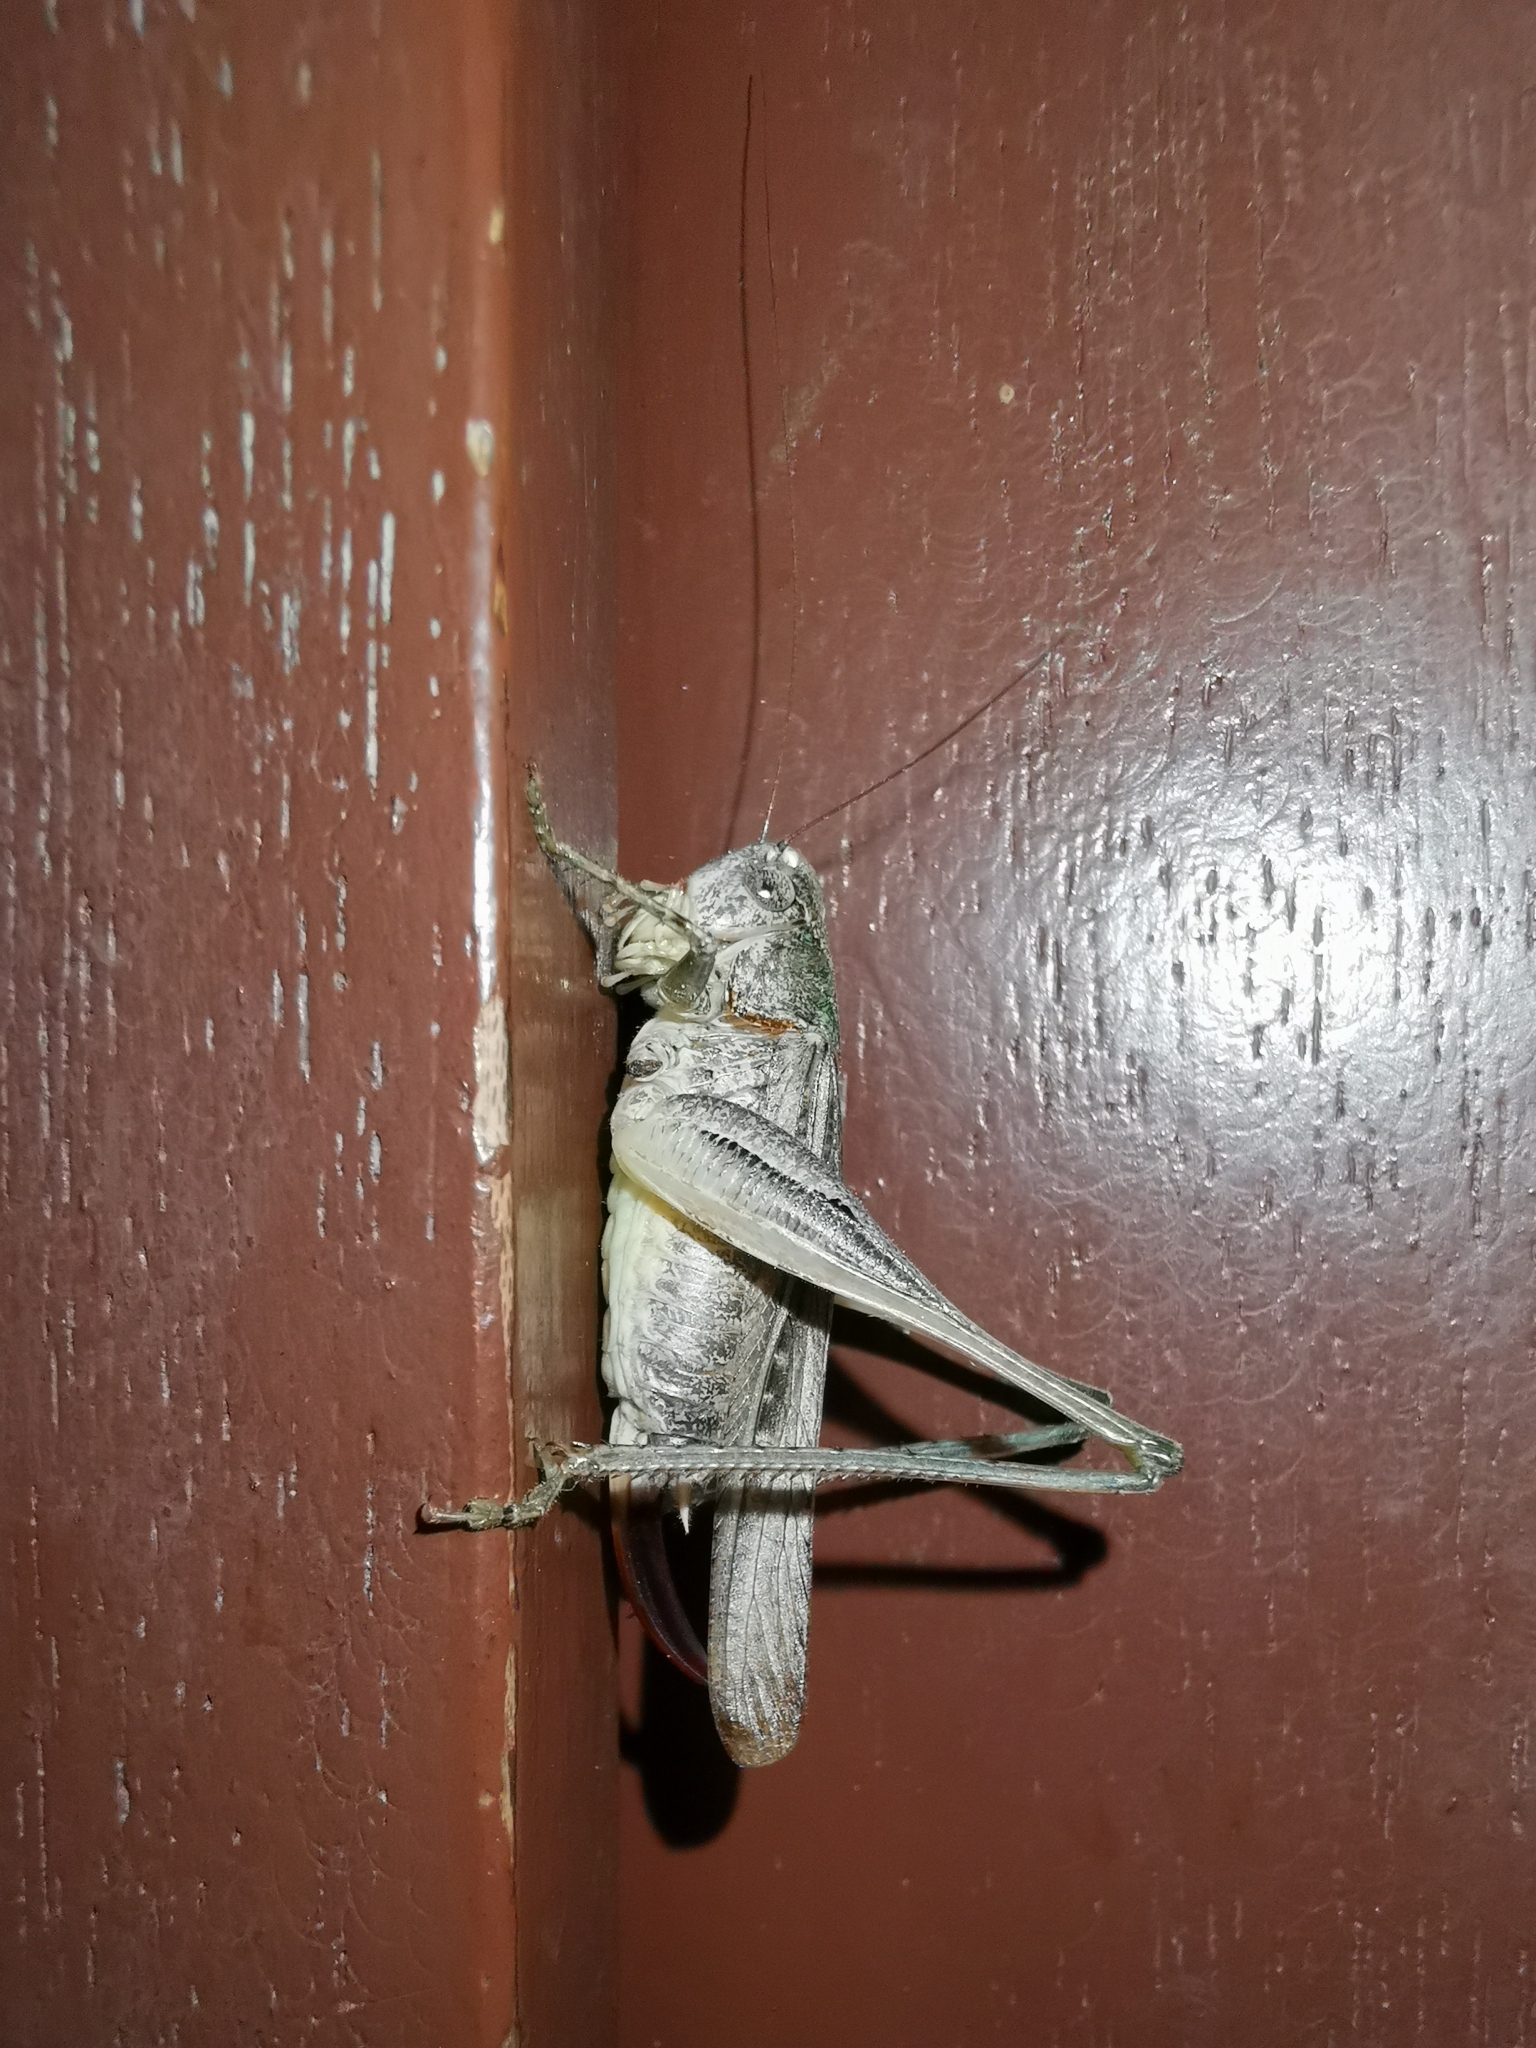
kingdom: Animalia
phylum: Arthropoda
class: Insecta
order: Orthoptera
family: Tettigoniidae
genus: Platycleis
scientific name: Platycleis grisea
